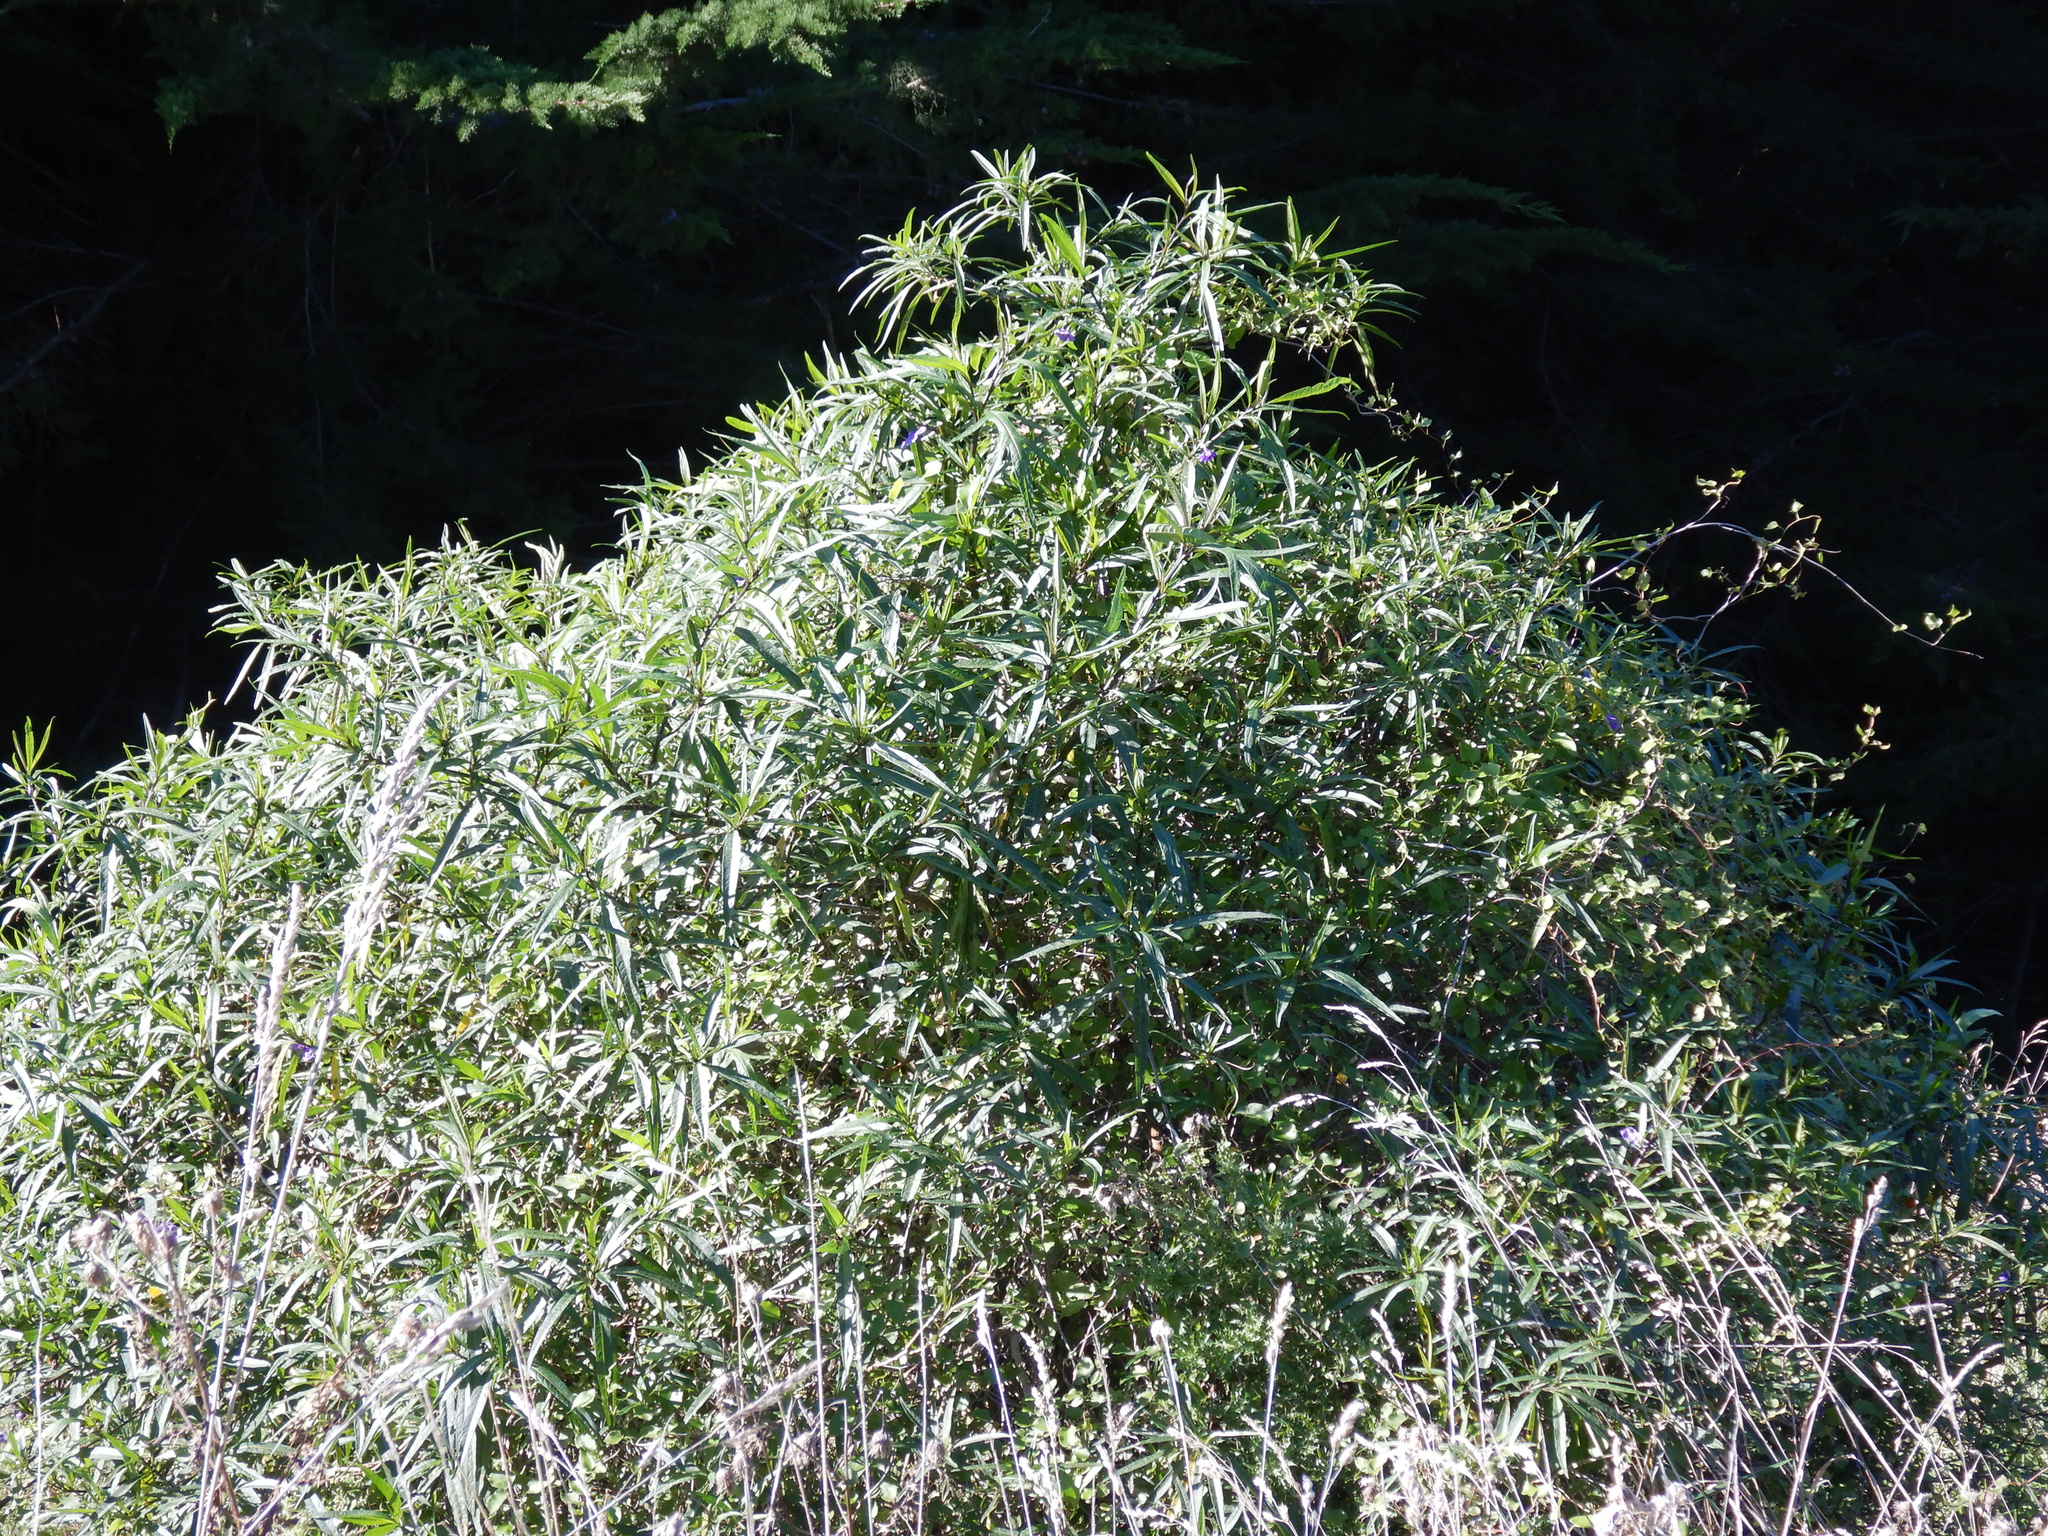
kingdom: Plantae
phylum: Tracheophyta
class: Magnoliopsida
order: Solanales
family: Solanaceae
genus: Solanum
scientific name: Solanum laciniatum
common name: Kangaroo-apple
